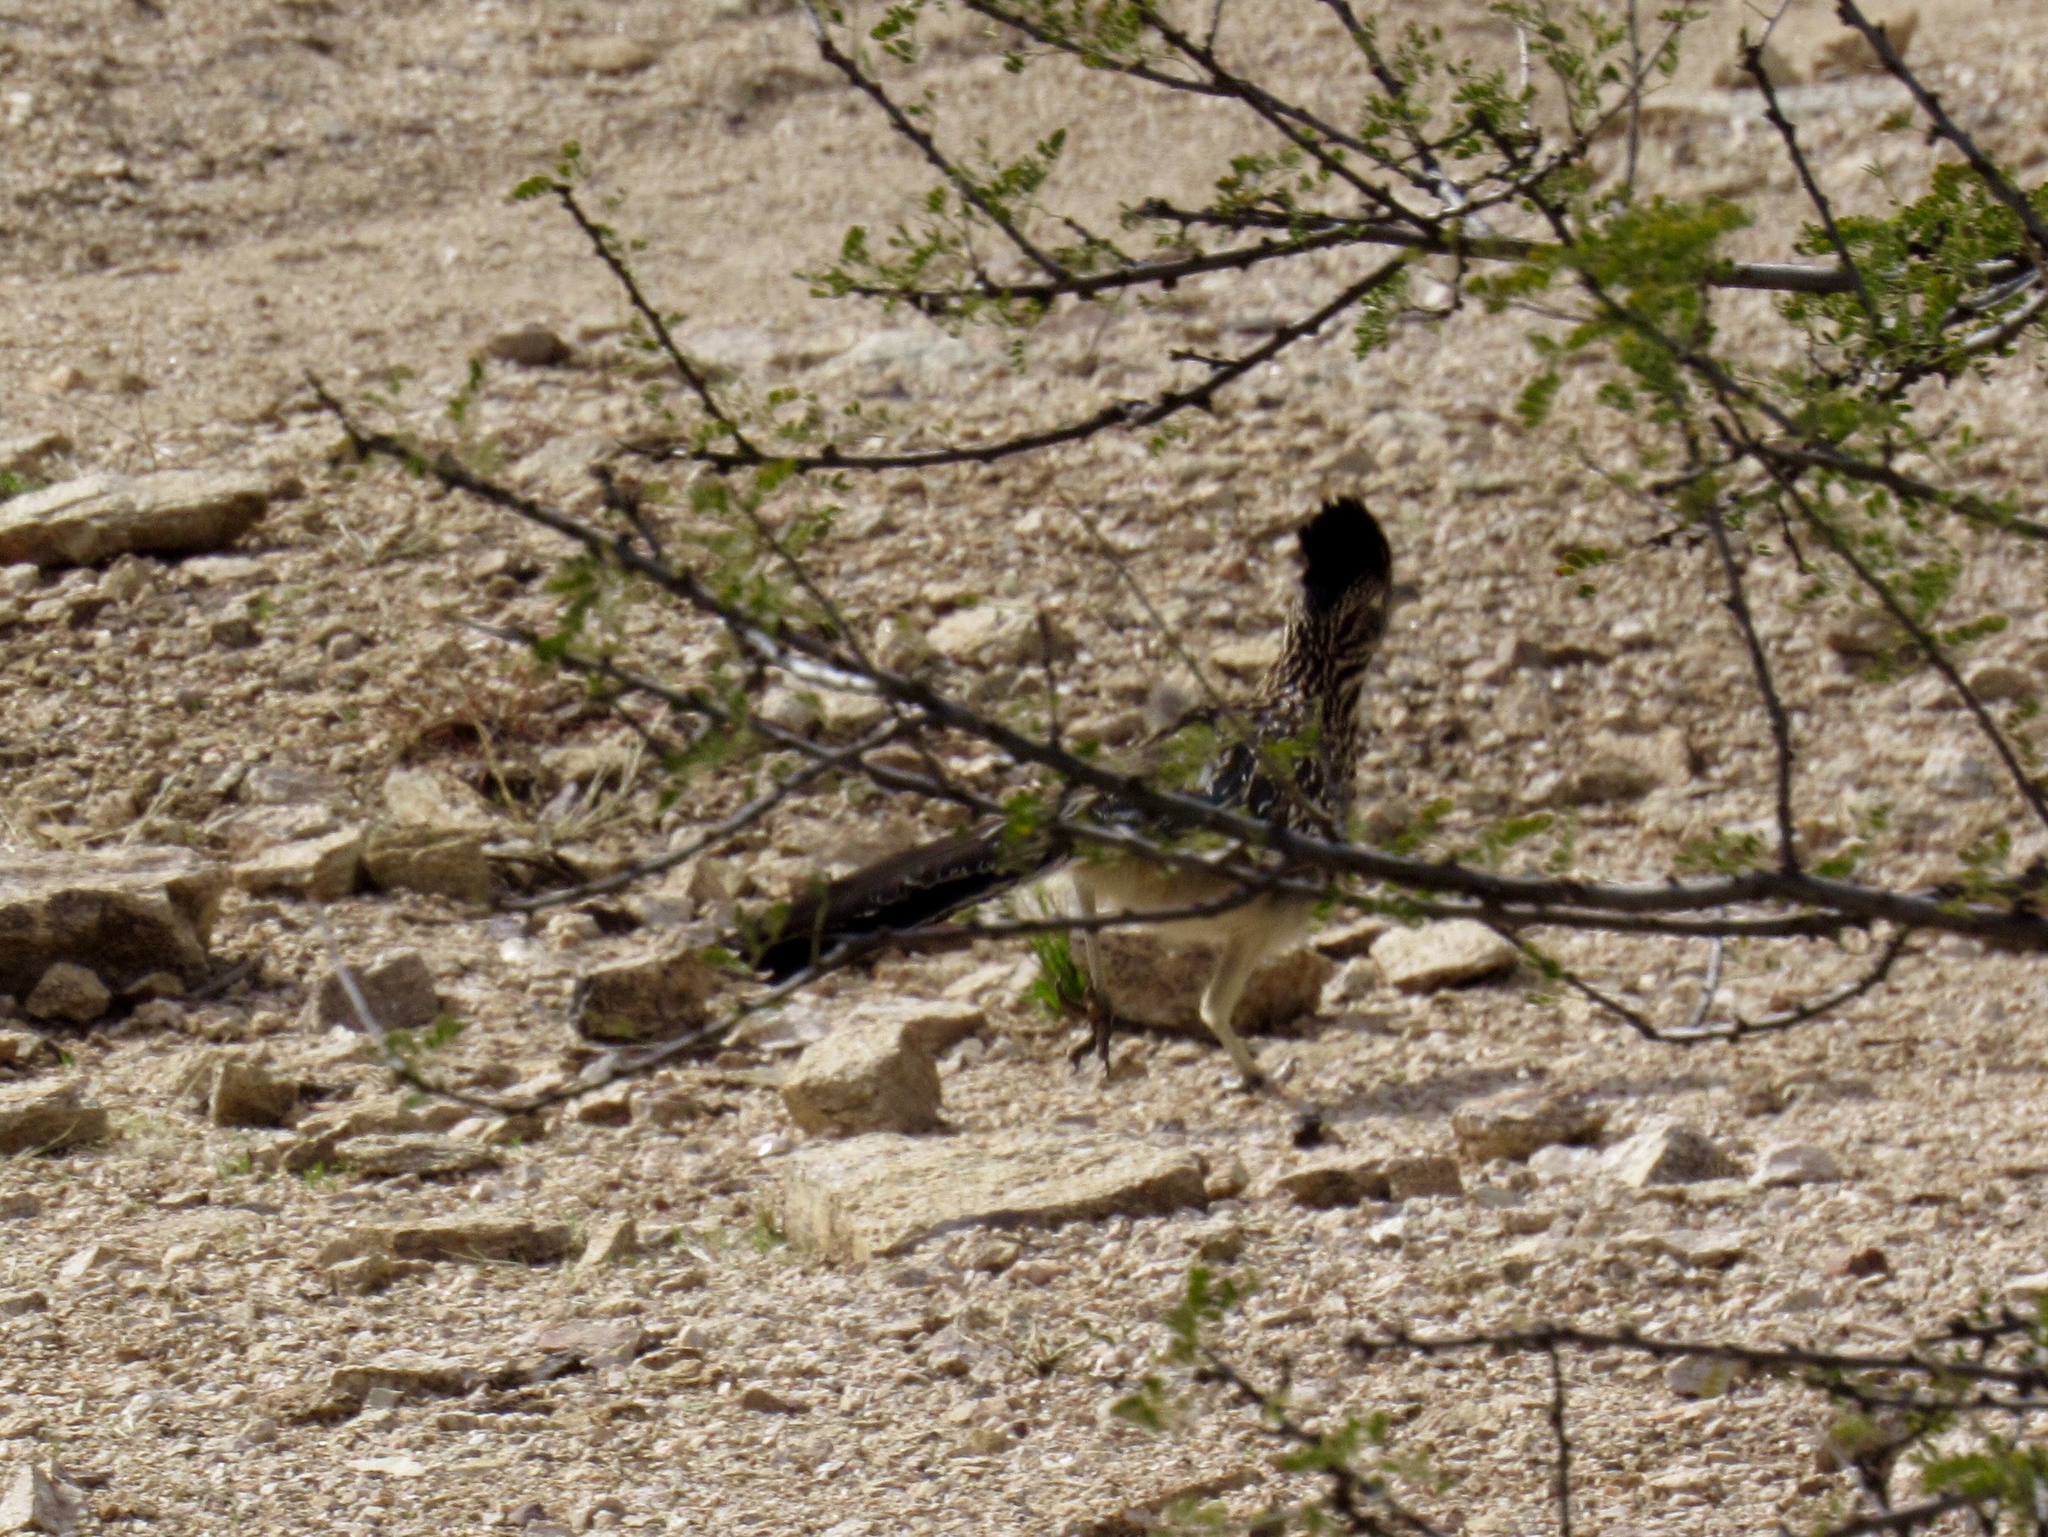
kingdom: Animalia
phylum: Chordata
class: Aves
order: Cuculiformes
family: Cuculidae
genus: Geococcyx
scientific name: Geococcyx californianus
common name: Greater roadrunner
